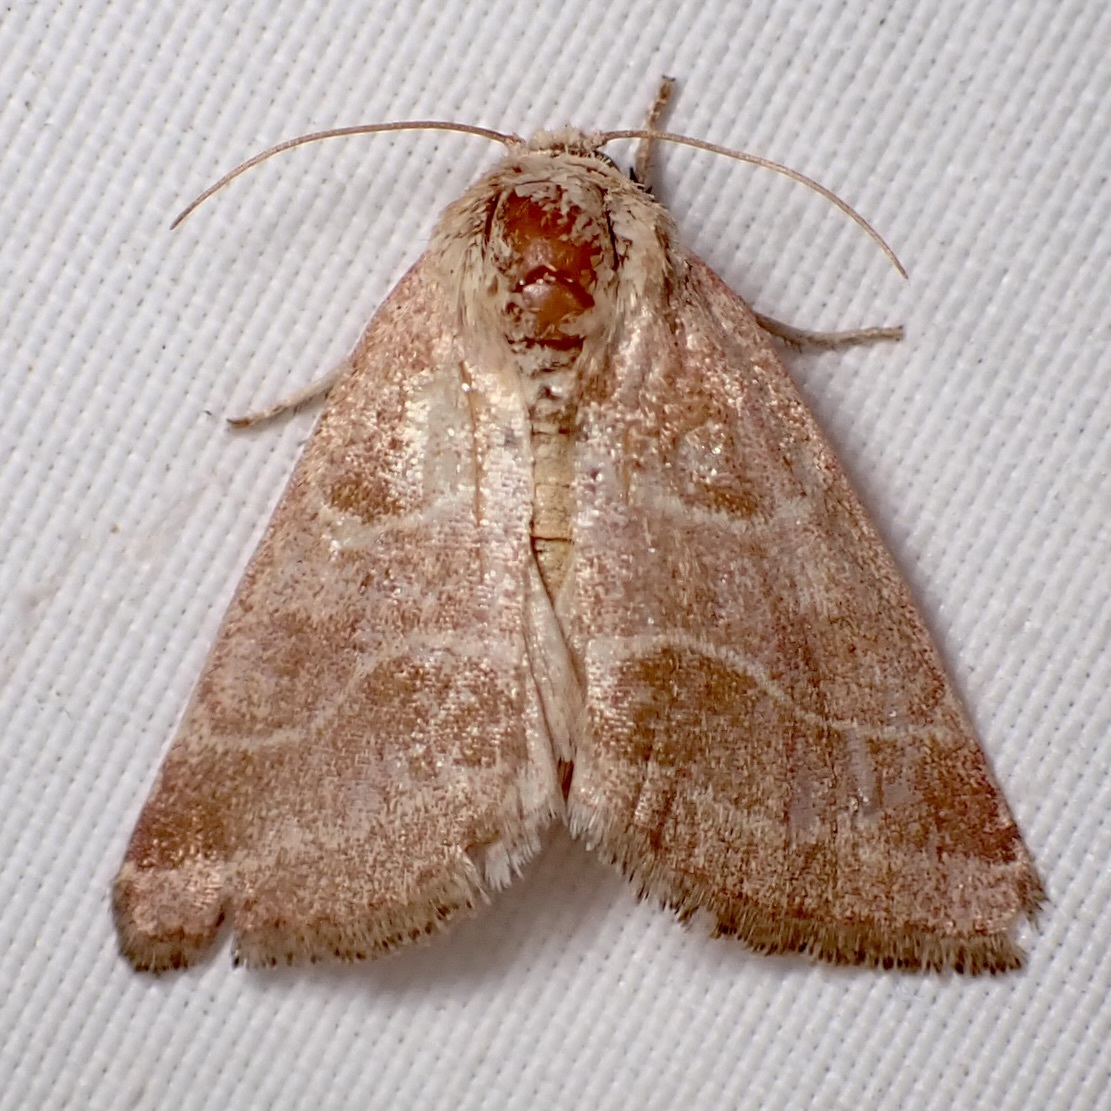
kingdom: Animalia
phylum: Arthropoda
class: Insecta
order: Lepidoptera
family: Noctuidae
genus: Schinia
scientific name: Schinia oleagina
